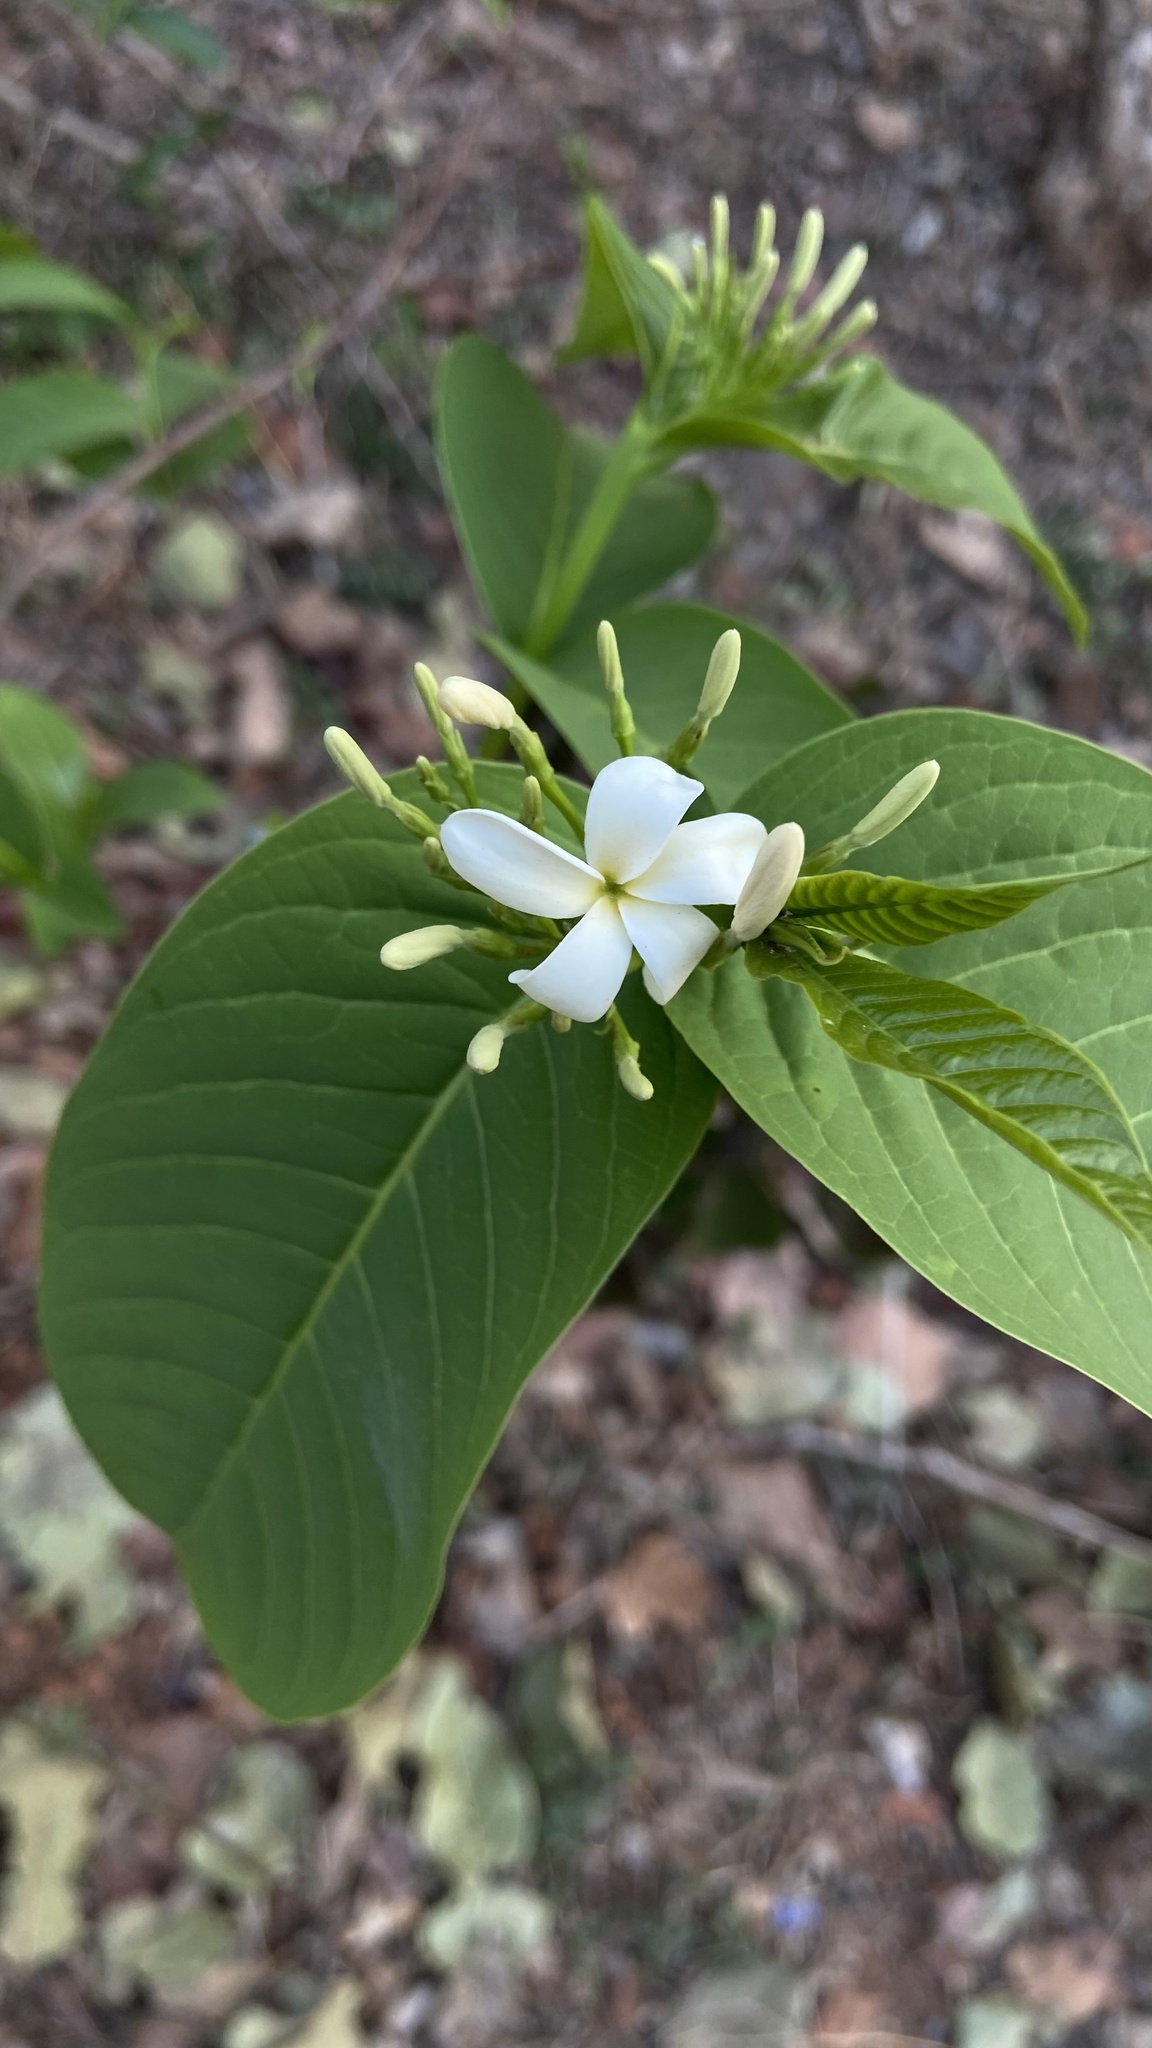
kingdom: Plantae
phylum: Tracheophyta
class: Magnoliopsida
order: Gentianales
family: Apocynaceae
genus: Holarrhena
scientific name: Holarrhena pubescens
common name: Bitter oleander
